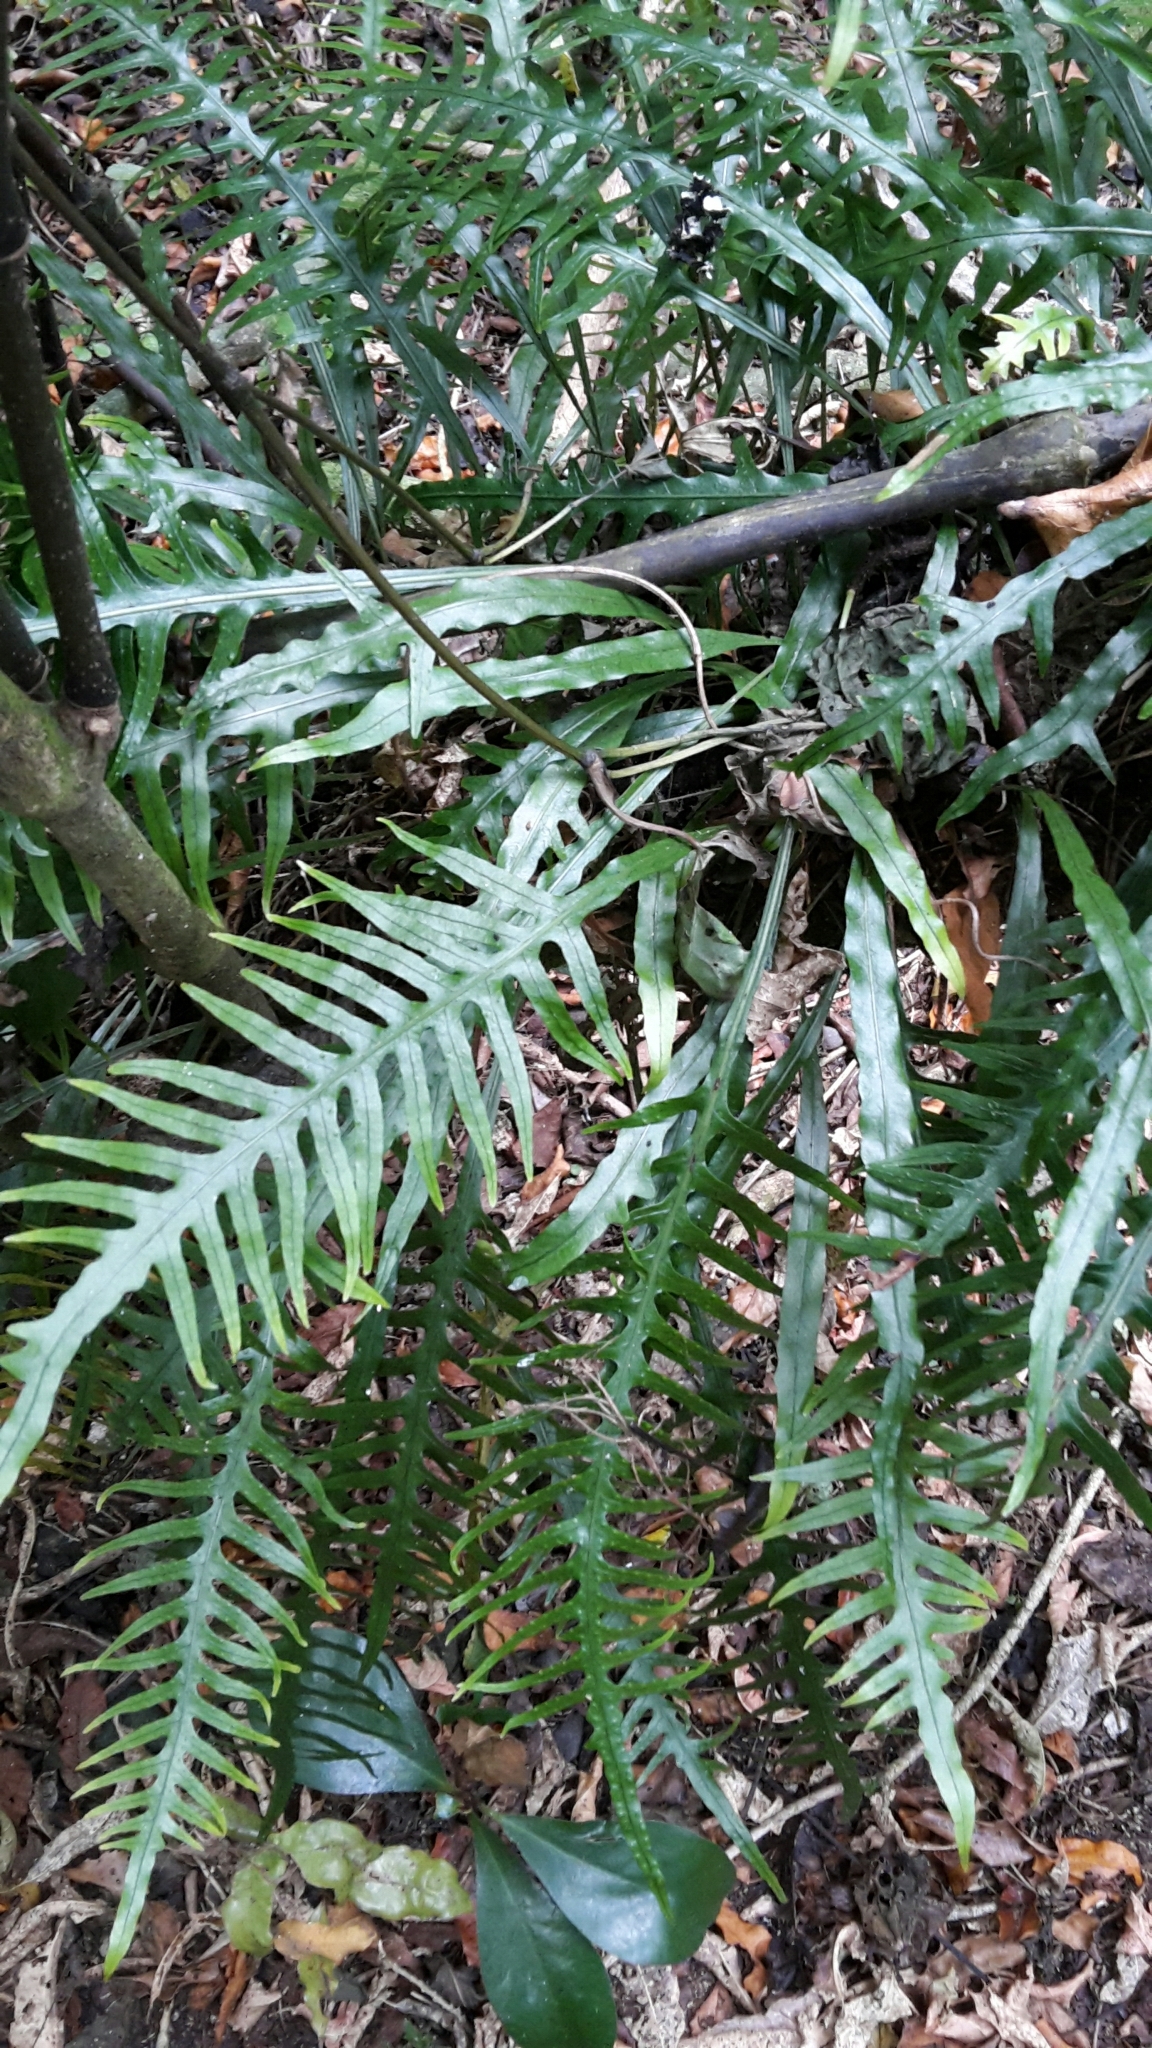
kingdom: Plantae
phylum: Tracheophyta
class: Polypodiopsida
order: Polypodiales
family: Polypodiaceae
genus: Lecanopteris
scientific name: Lecanopteris scandens
